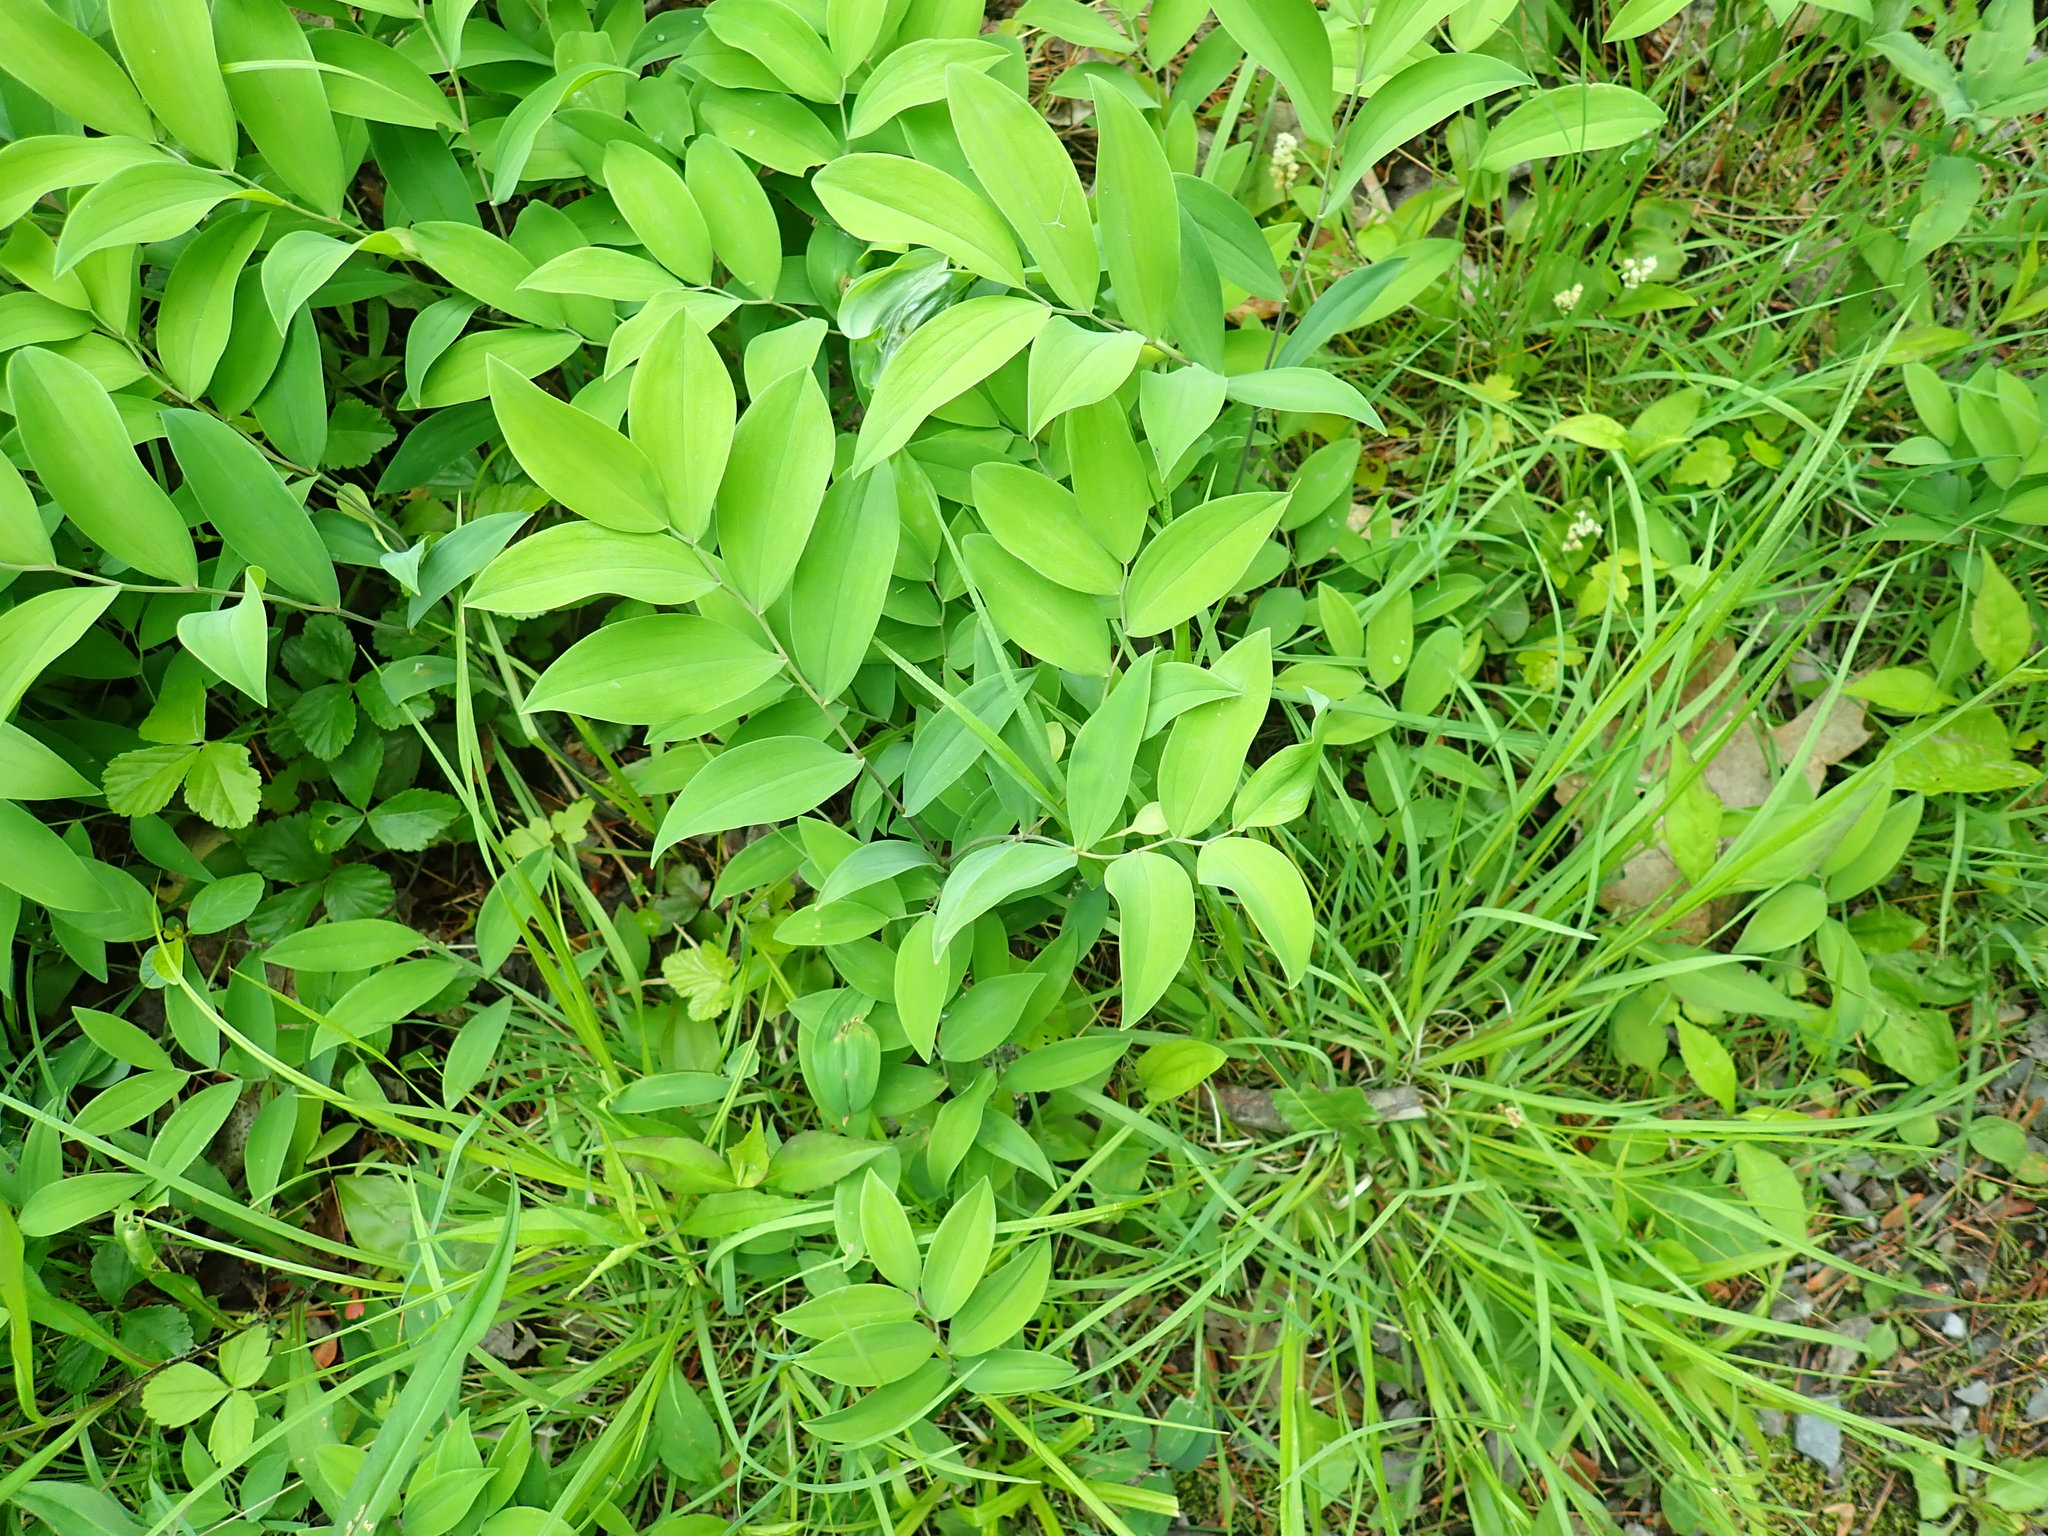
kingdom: Plantae
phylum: Tracheophyta
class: Liliopsida
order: Liliales
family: Colchicaceae
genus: Uvularia
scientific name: Uvularia sessilifolia
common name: Straw-lily
